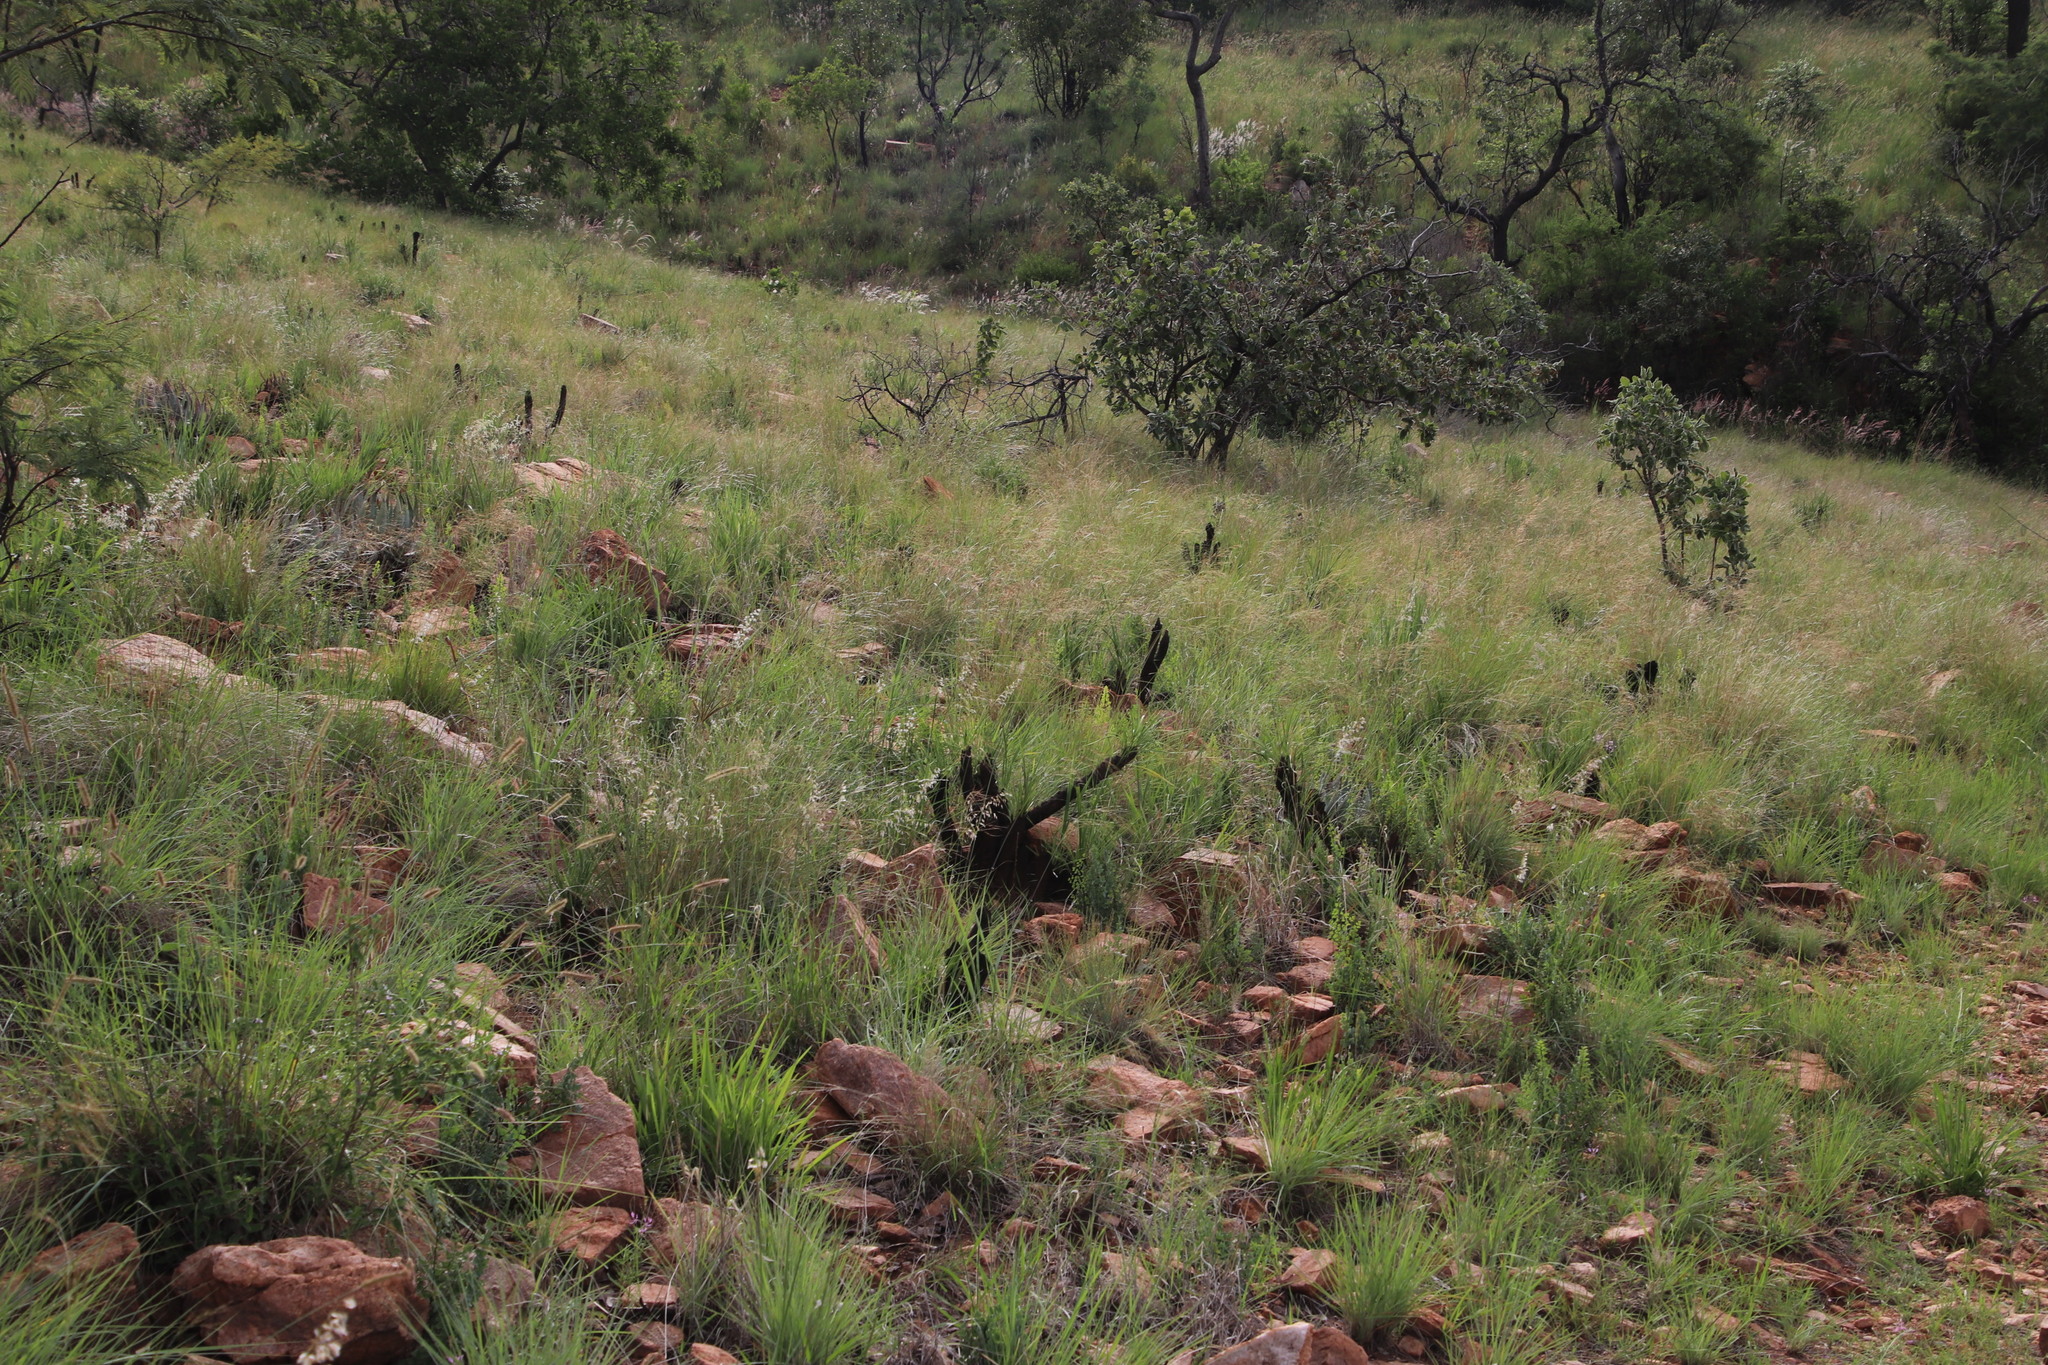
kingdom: Plantae
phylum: Tracheophyta
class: Liliopsida
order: Pandanales
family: Velloziaceae
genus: Xerophyta
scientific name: Xerophyta retinervis
